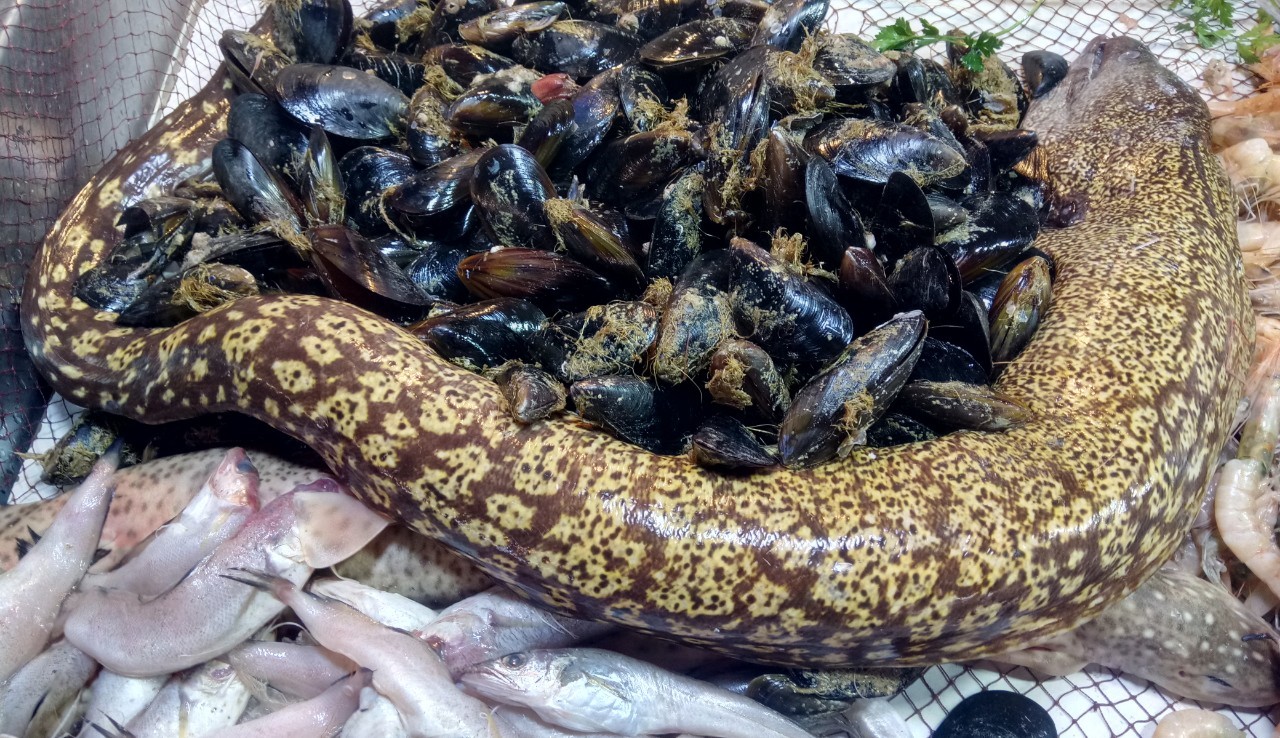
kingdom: Animalia
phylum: Chordata
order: Anguilliformes
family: Muraenidae
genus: Muraena
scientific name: Muraena helena
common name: Mediterranean moray
